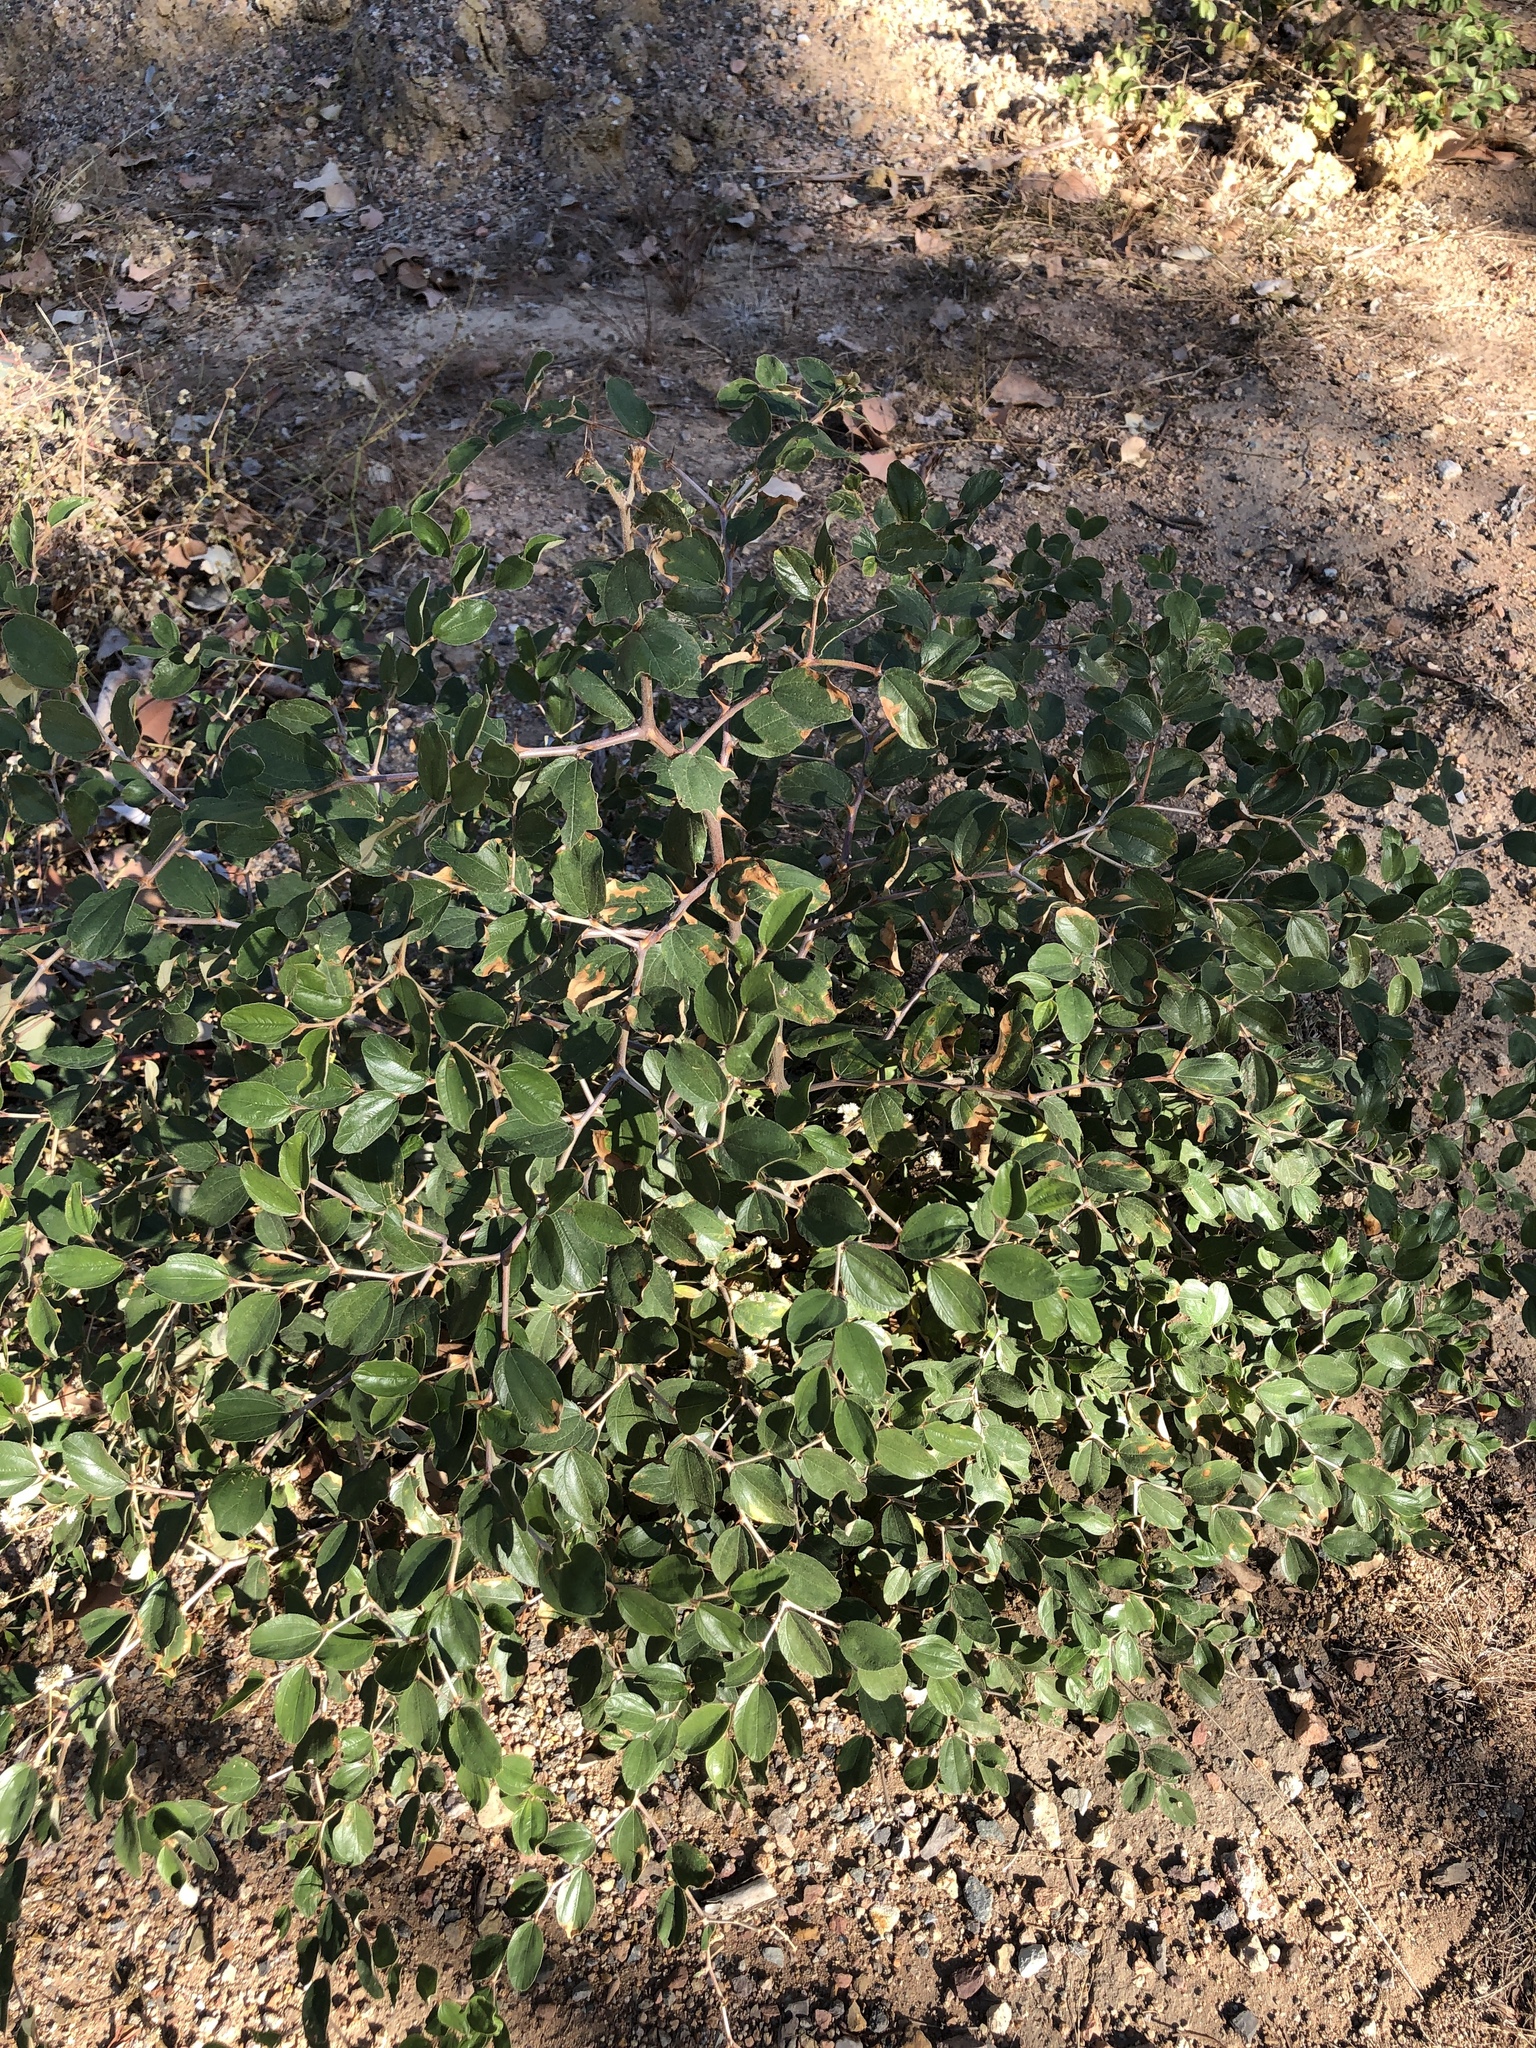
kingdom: Plantae
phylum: Tracheophyta
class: Magnoliopsida
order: Rosales
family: Rhamnaceae
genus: Ziziphus
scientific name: Ziziphus mauritiana
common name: Indian jujube
